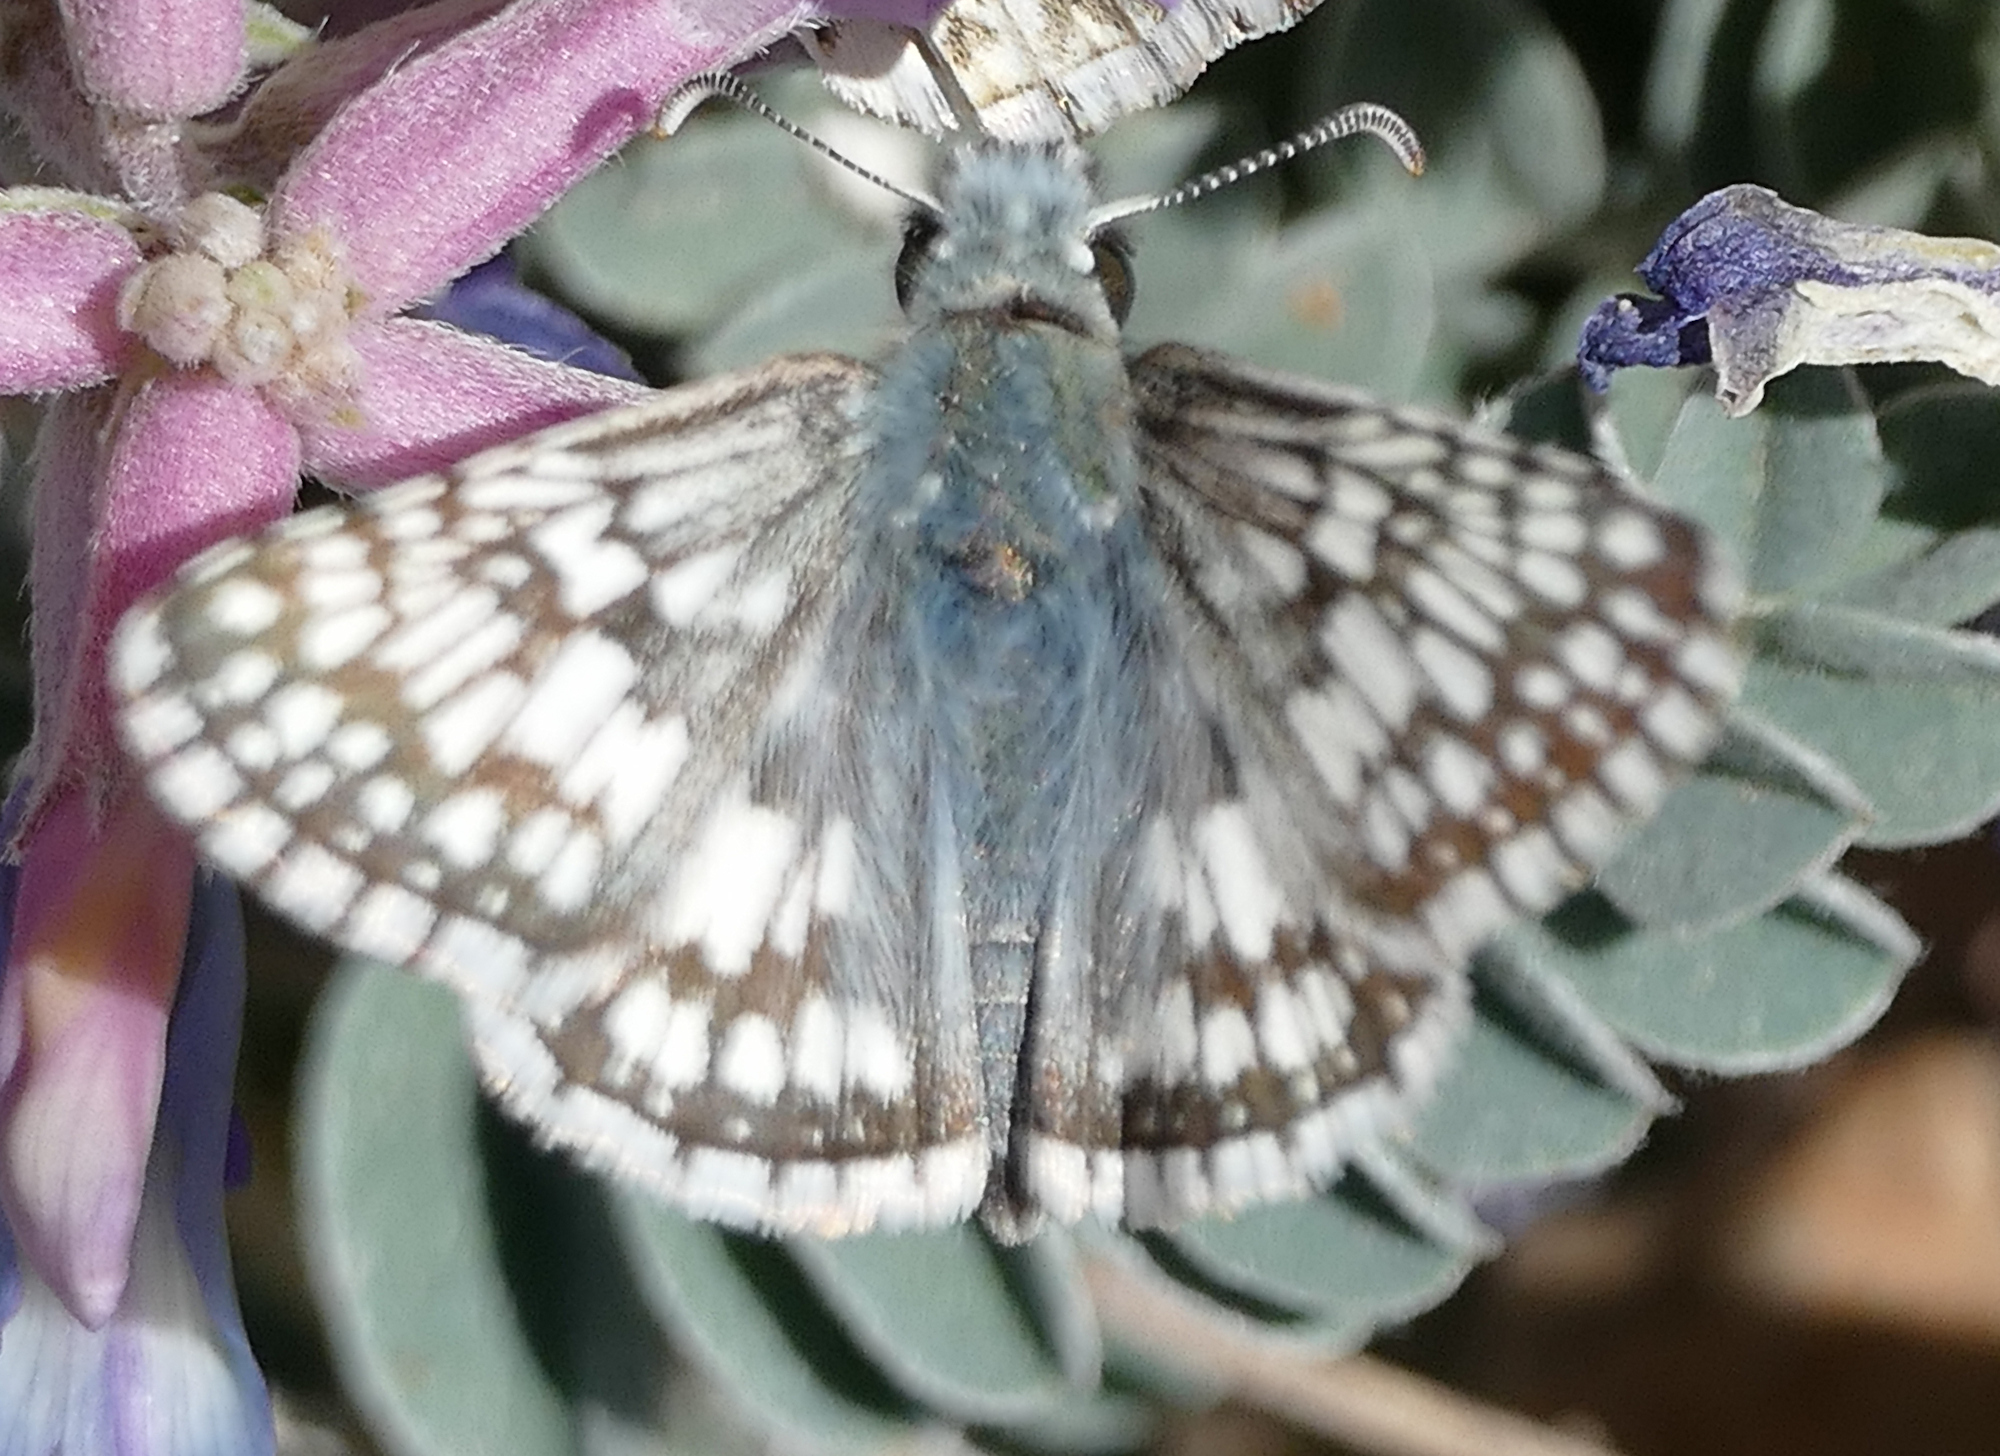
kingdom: Animalia
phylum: Arthropoda
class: Insecta
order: Lepidoptera
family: Hesperiidae
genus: Burnsius
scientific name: Burnsius
